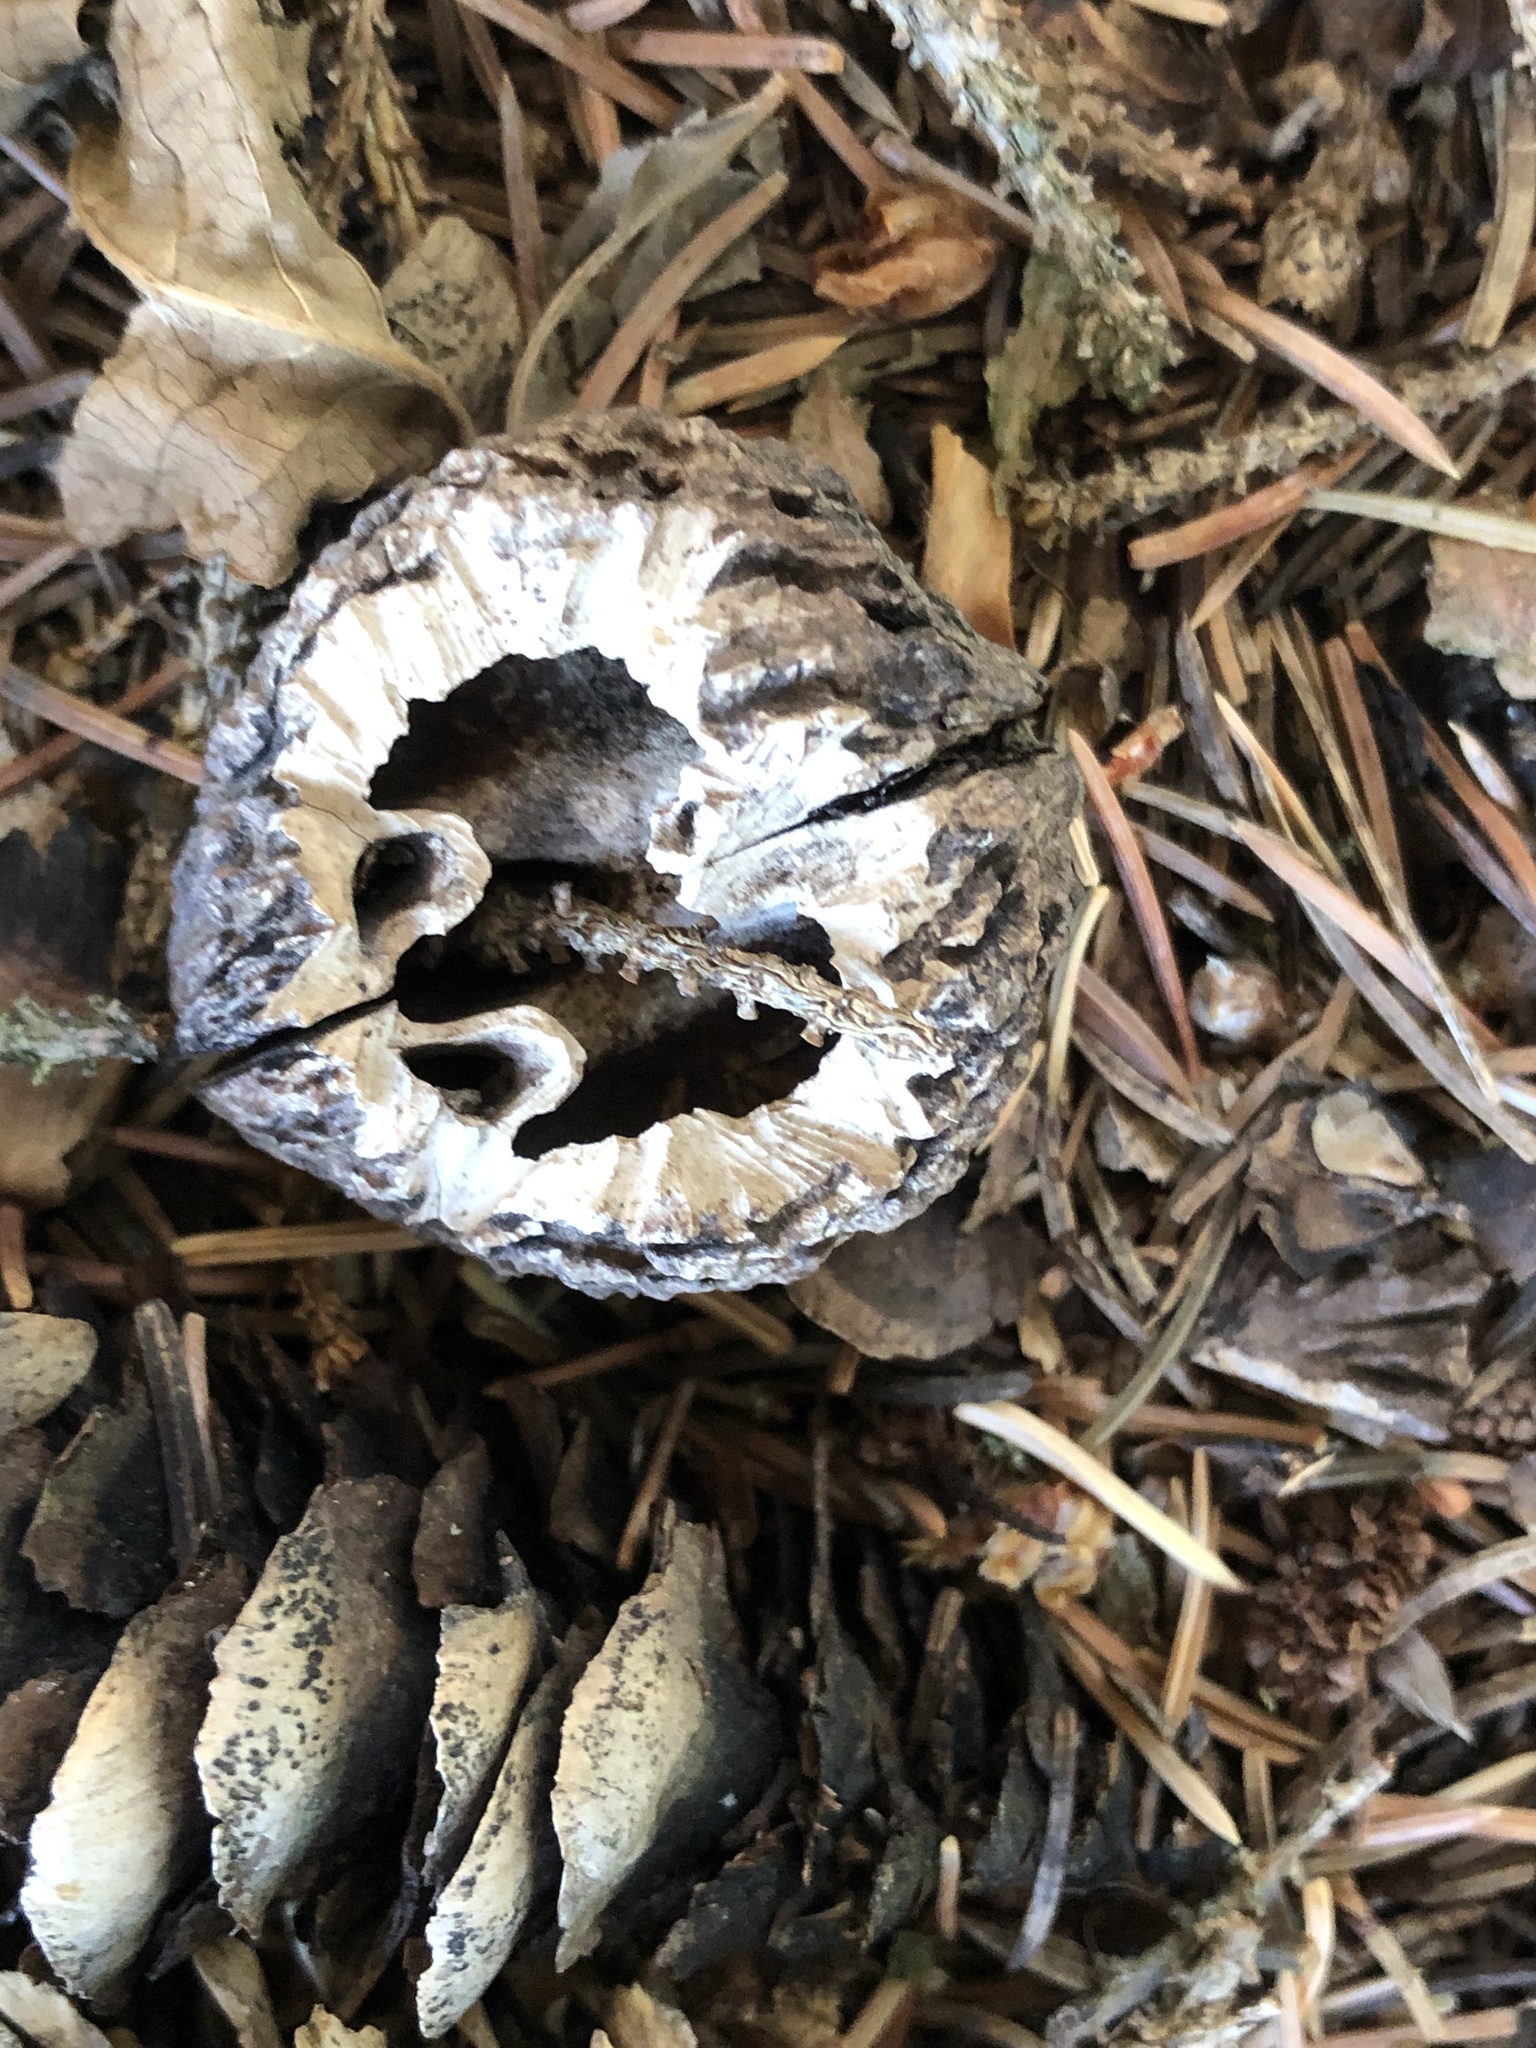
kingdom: Plantae
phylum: Tracheophyta
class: Magnoliopsida
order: Fagales
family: Juglandaceae
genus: Juglans
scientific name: Juglans nigra
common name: Black walnut
